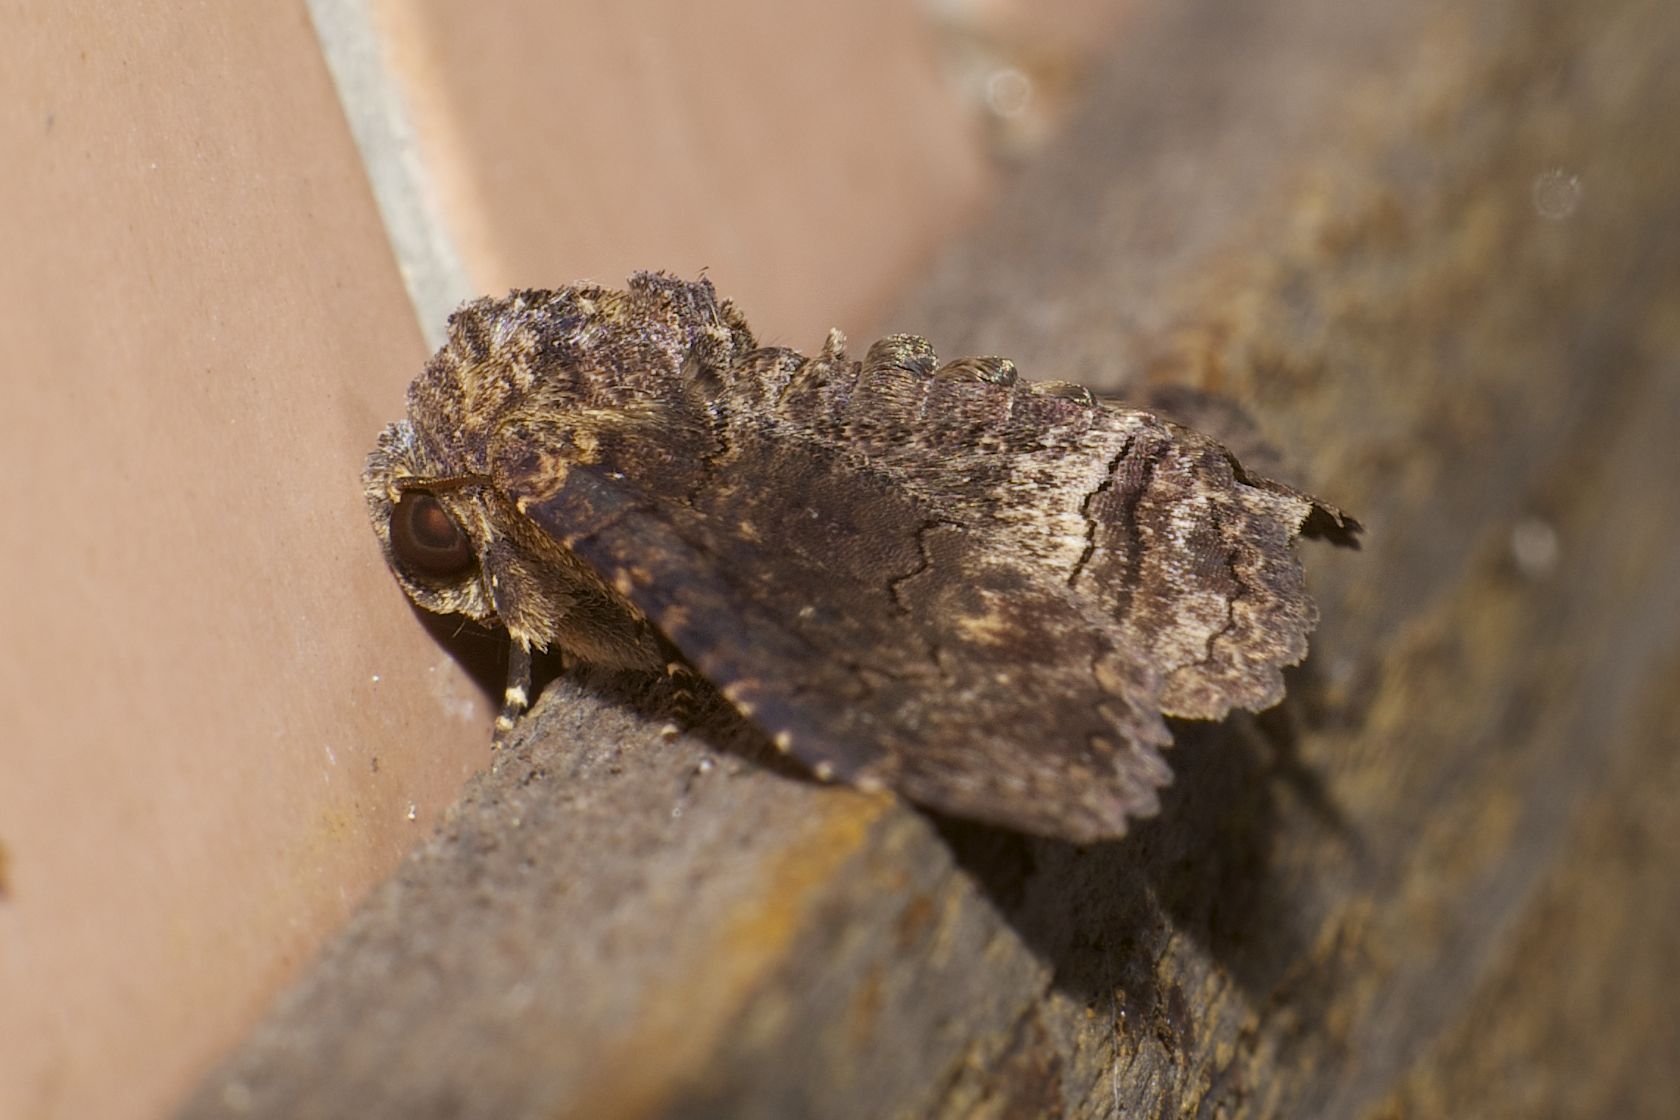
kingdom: Animalia
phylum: Arthropoda
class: Insecta
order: Lepidoptera
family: Erebidae
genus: Pericyma
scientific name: Pericyma cruegeri
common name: Poinciana looper
